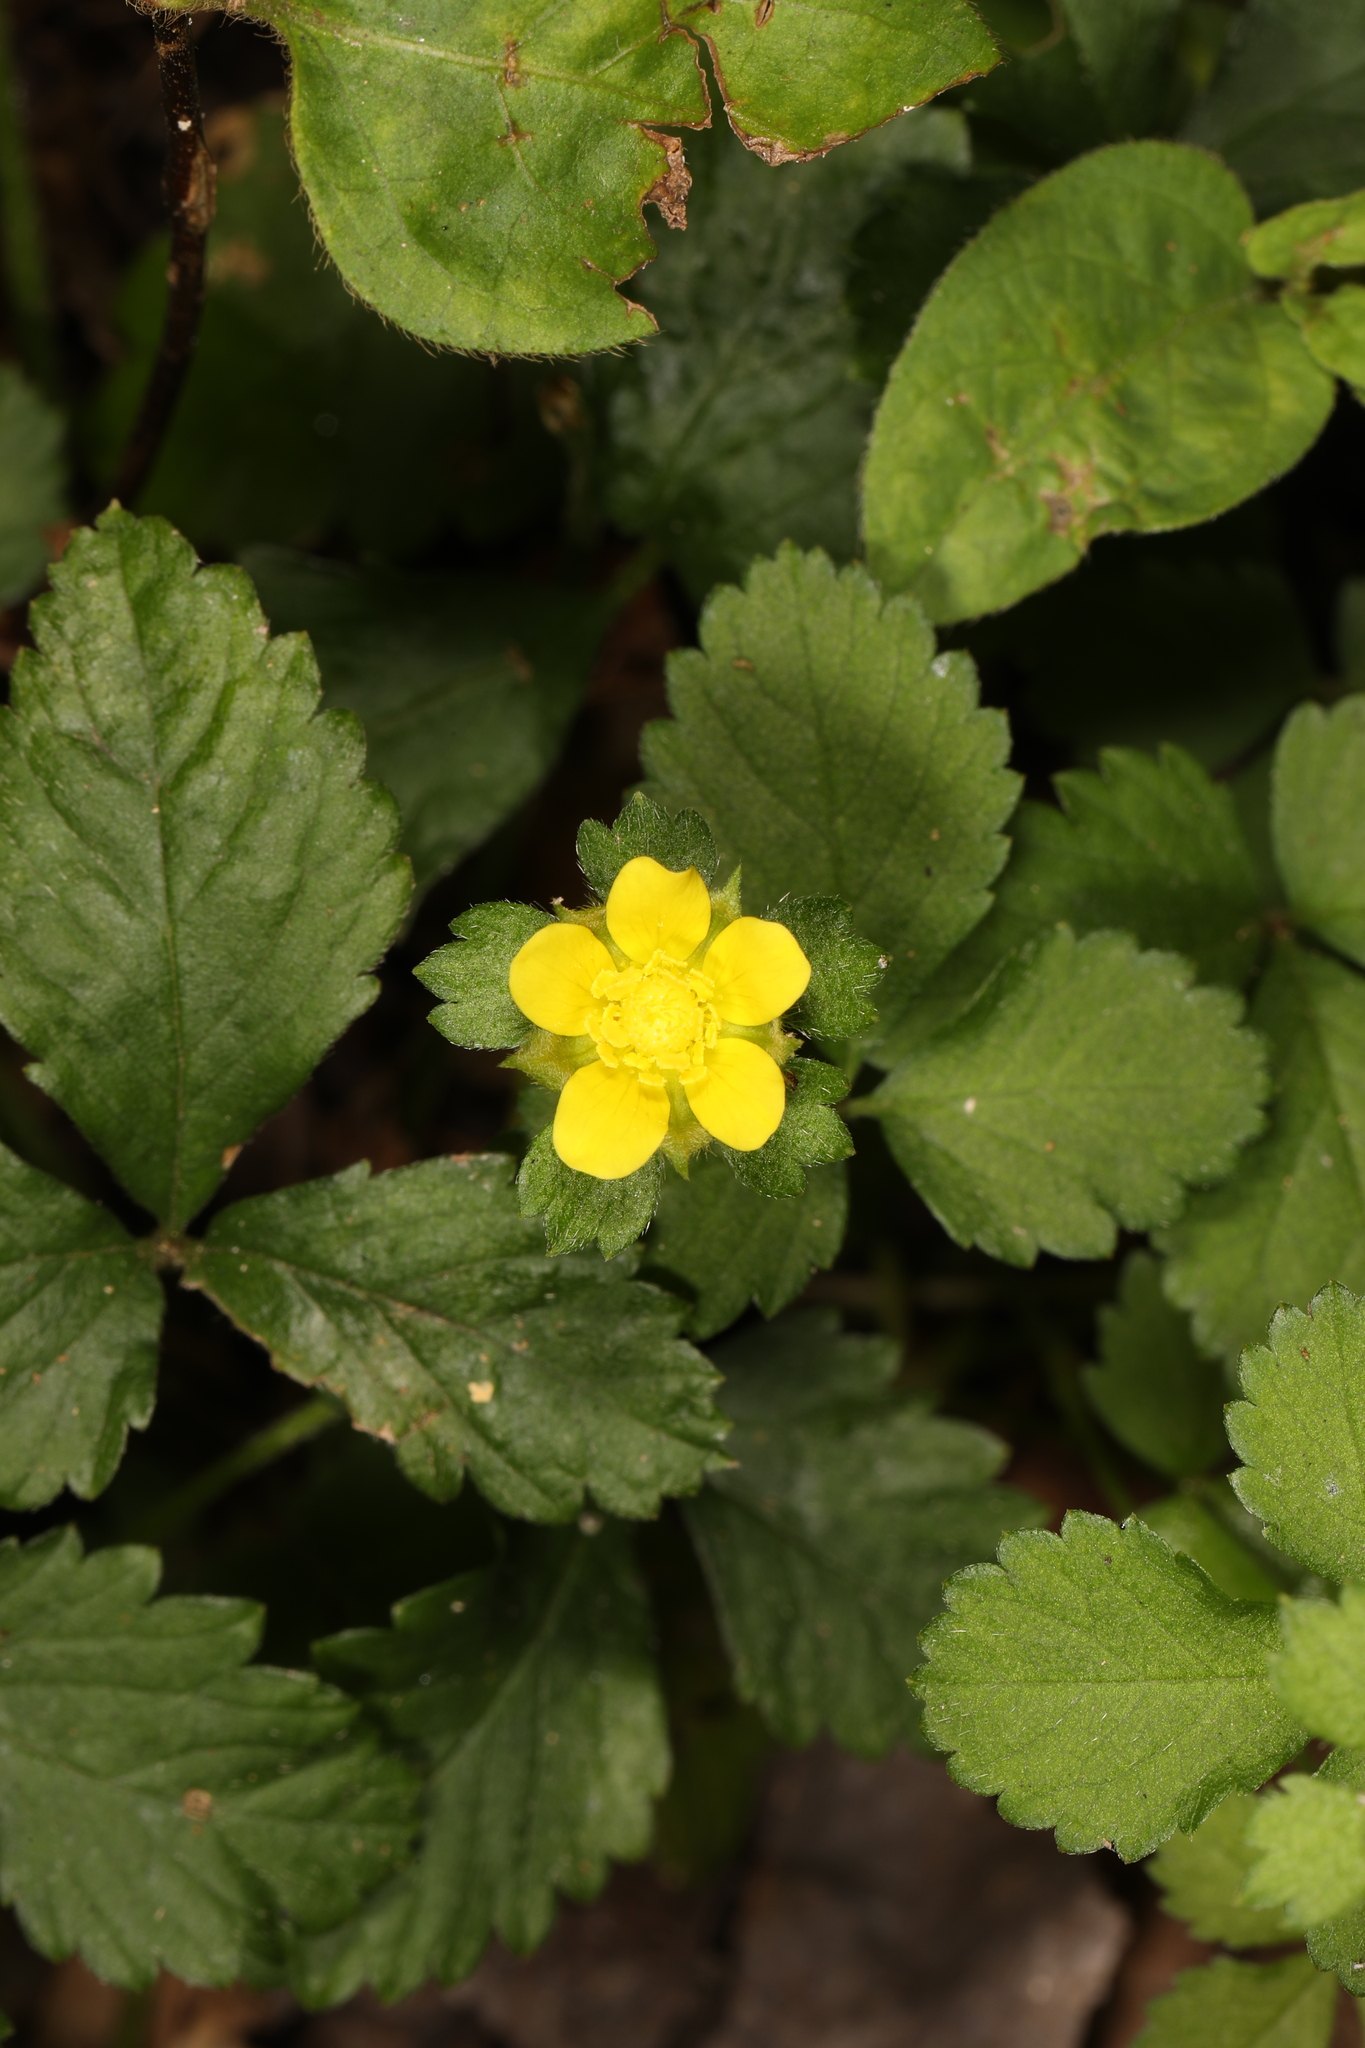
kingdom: Plantae
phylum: Tracheophyta
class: Magnoliopsida
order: Rosales
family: Rosaceae
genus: Potentilla
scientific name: Potentilla indica
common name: Yellow-flowered strawberry
